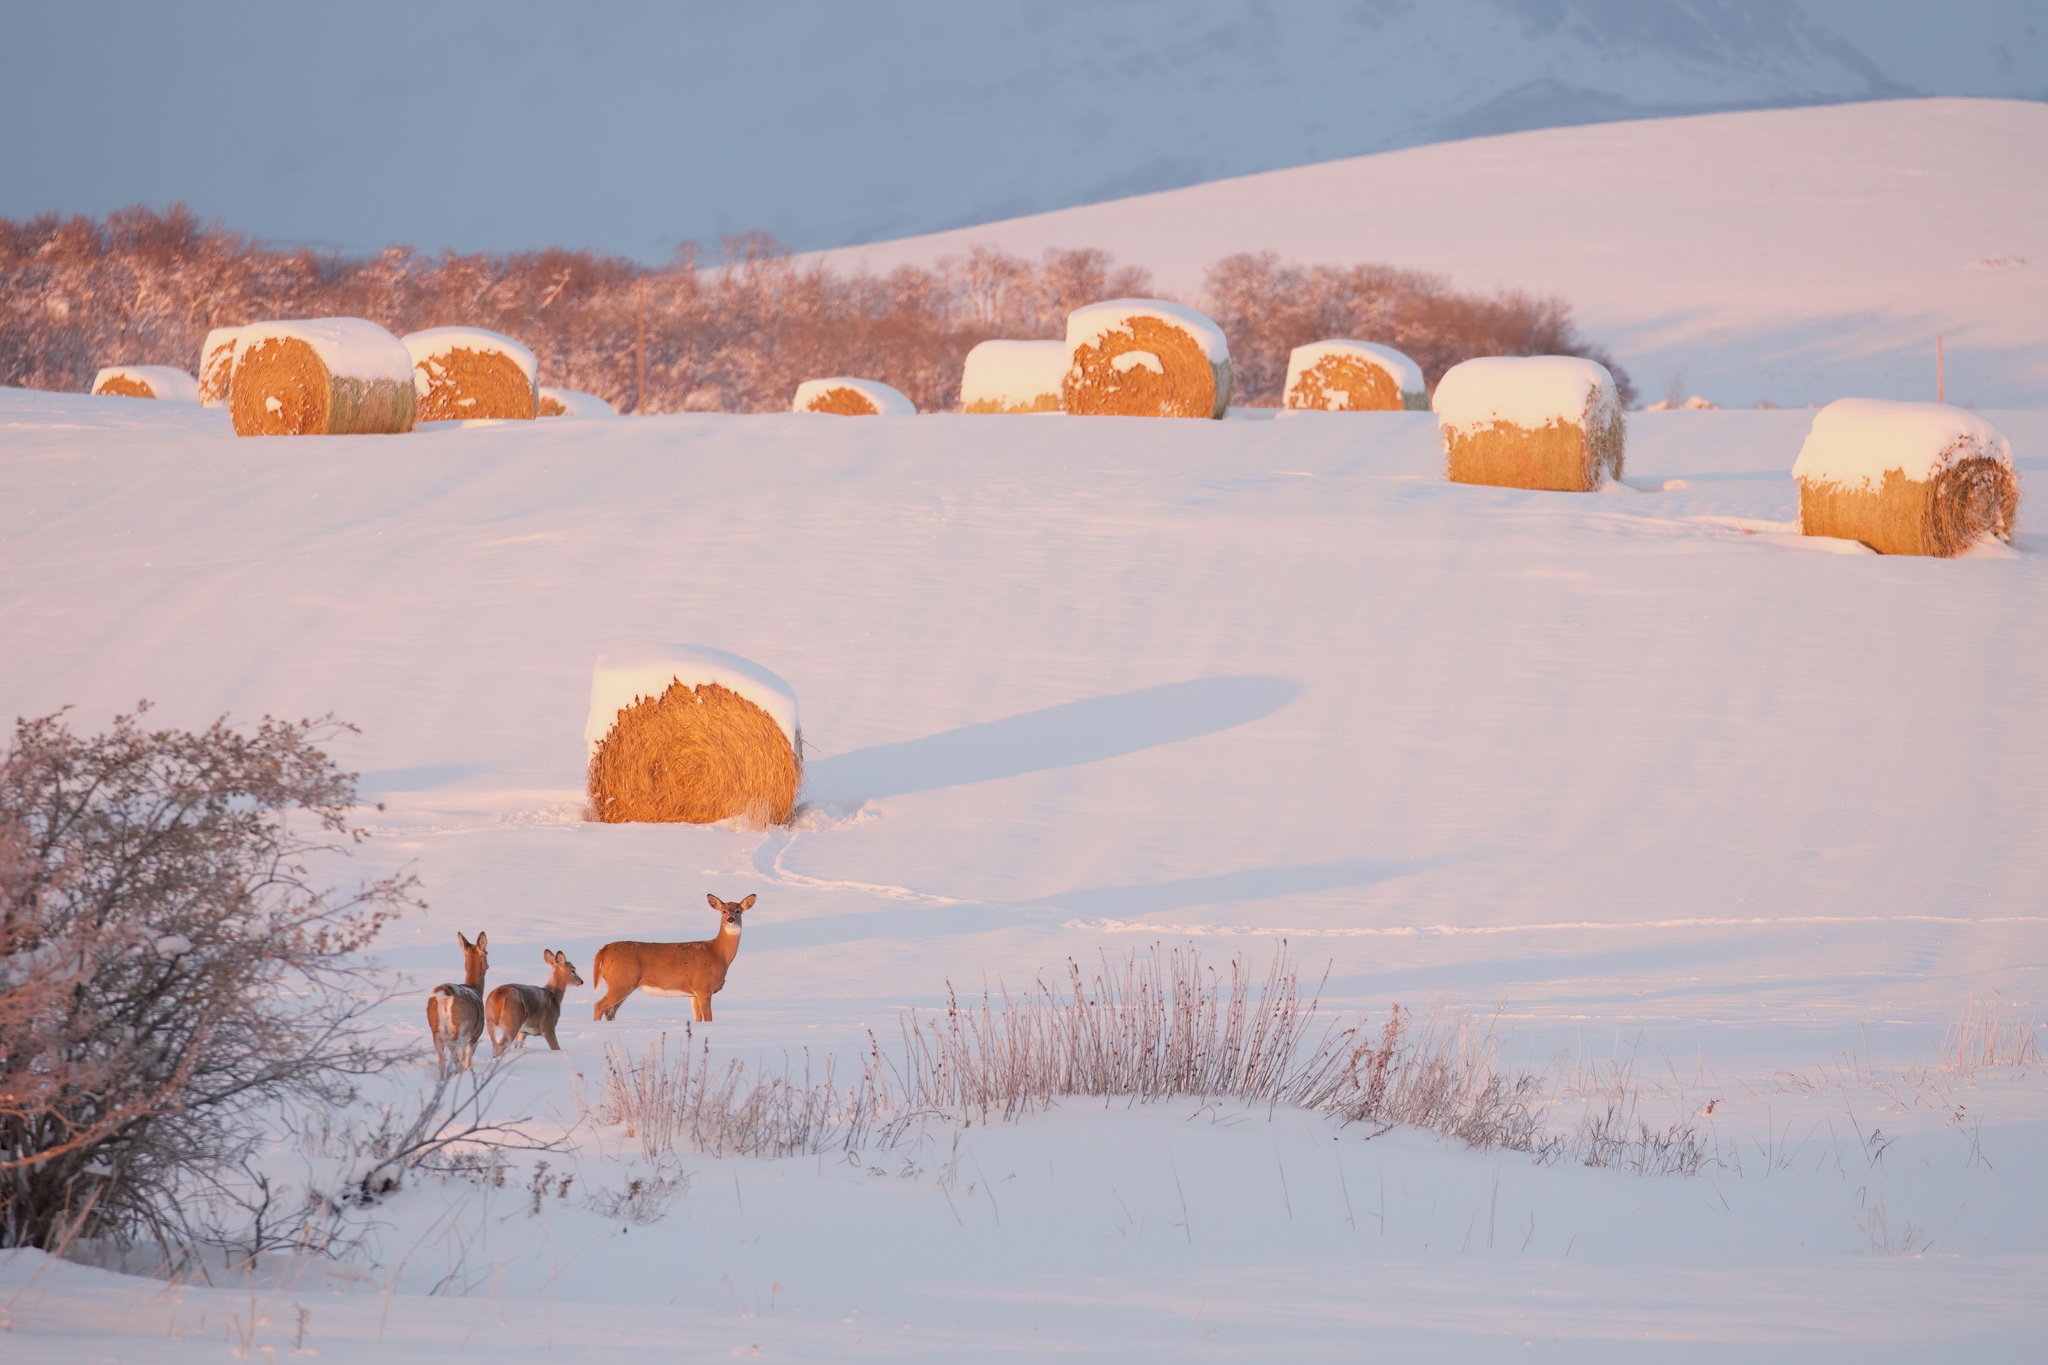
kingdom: Animalia
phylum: Chordata
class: Mammalia
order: Artiodactyla
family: Cervidae
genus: Odocoileus
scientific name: Odocoileus virginianus
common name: White-tailed deer
